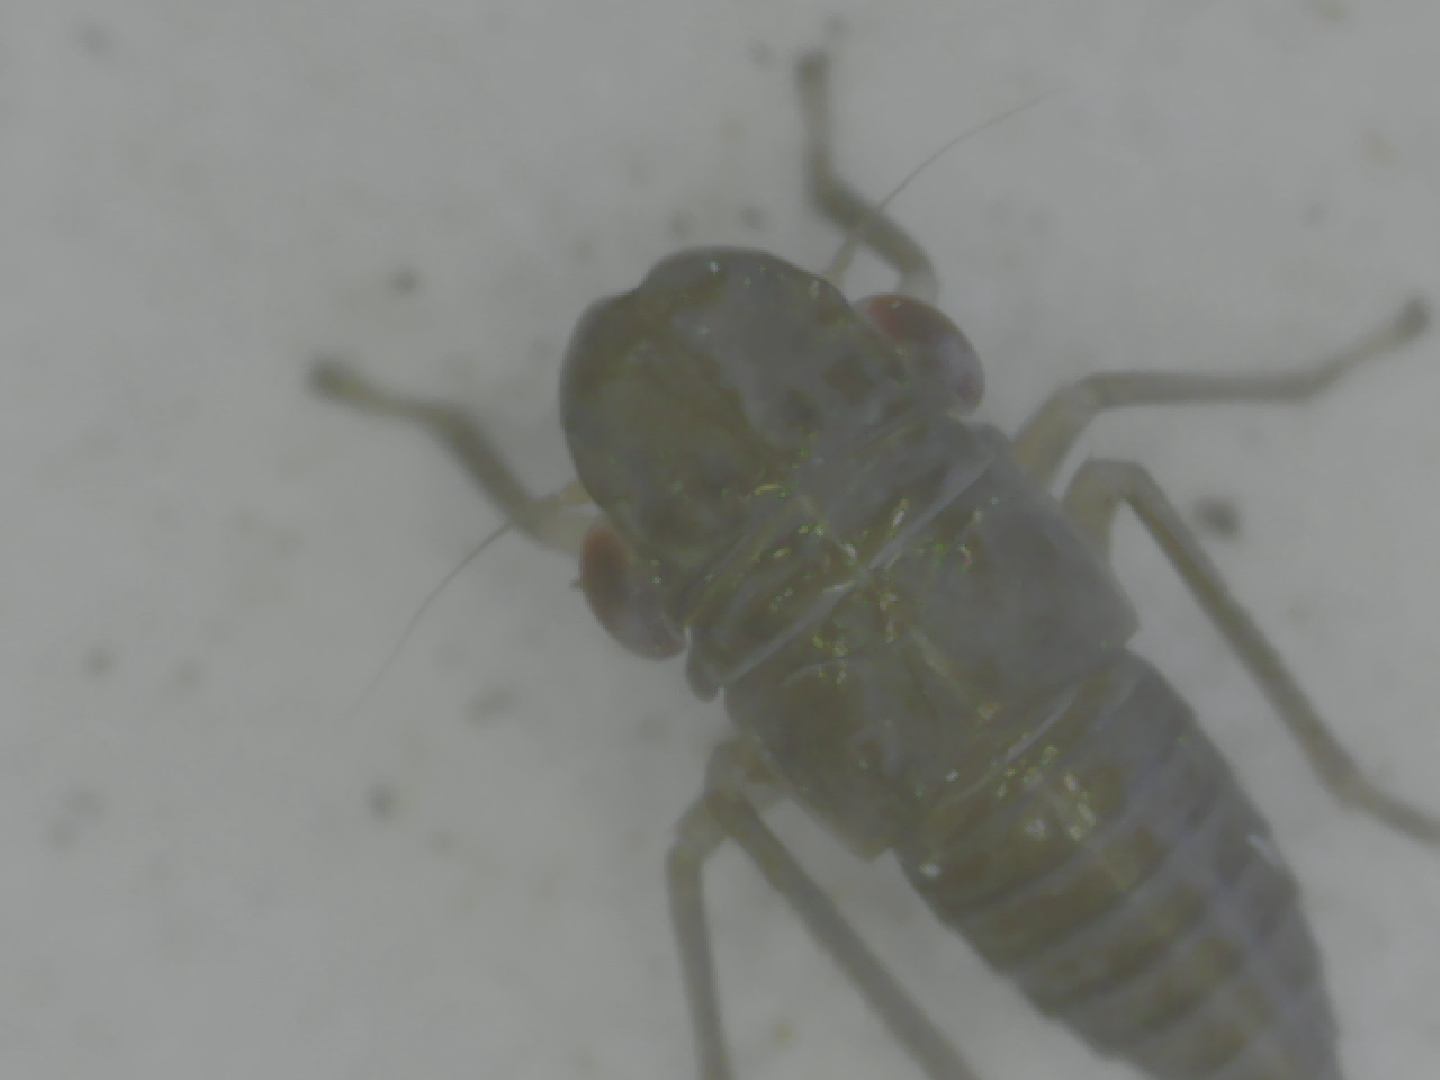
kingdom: Animalia
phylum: Arthropoda
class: Insecta
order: Hemiptera
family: Cicadellidae
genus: Homalodisca
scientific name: Homalodisca
